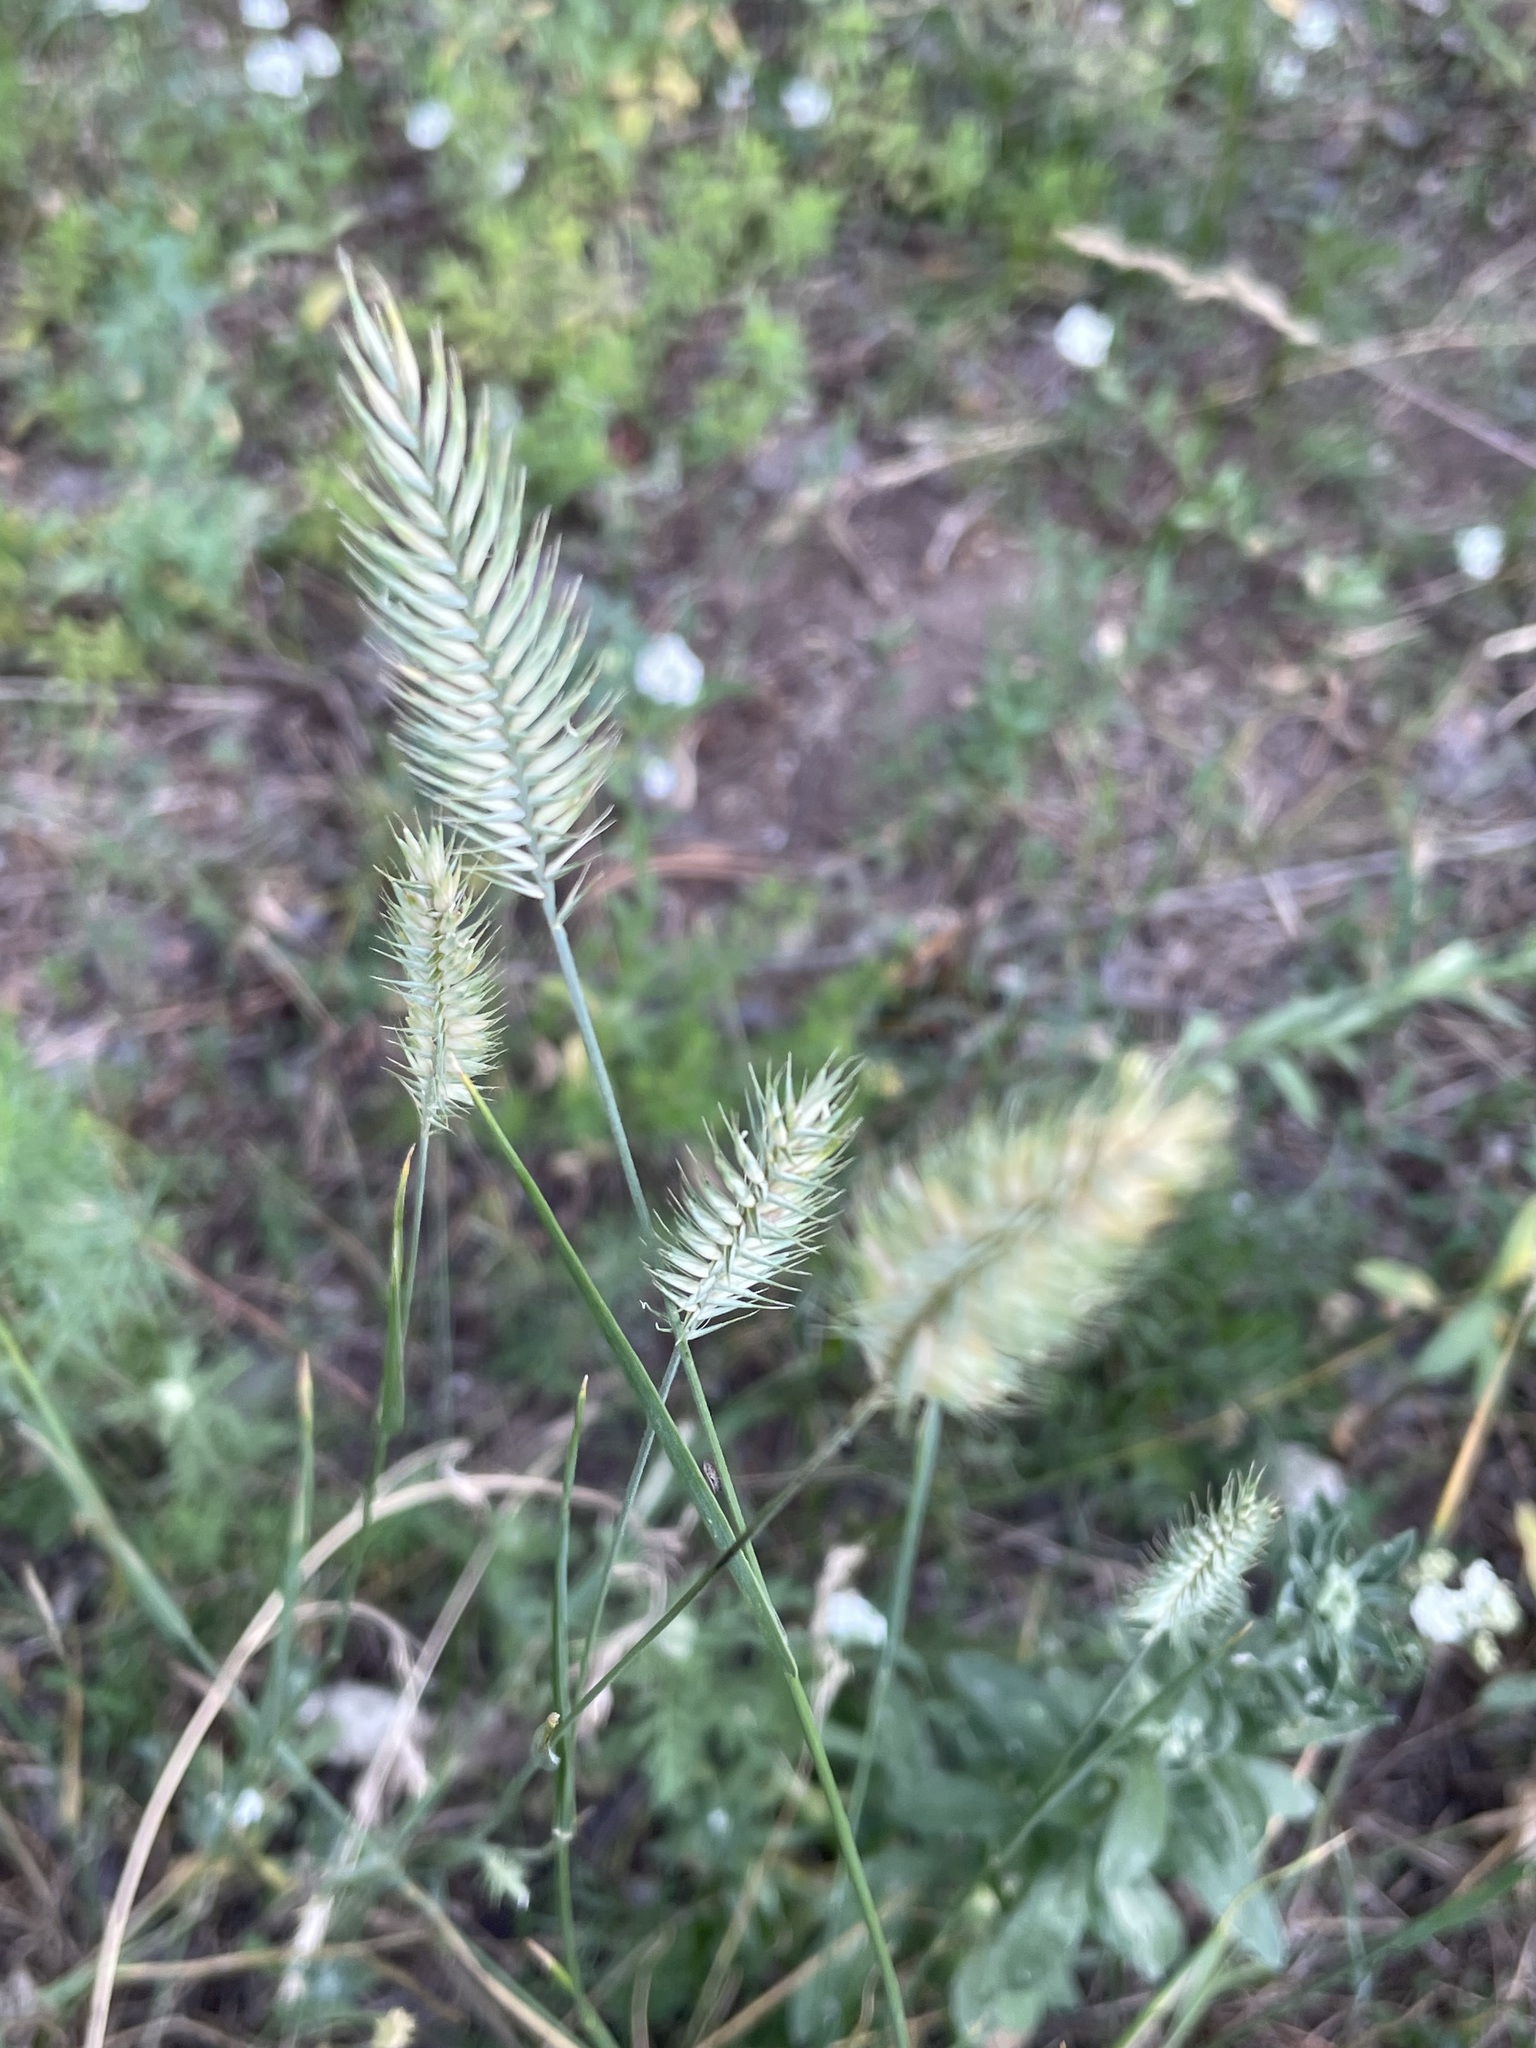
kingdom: Plantae
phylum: Tracheophyta
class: Liliopsida
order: Poales
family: Poaceae
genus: Agropyron
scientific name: Agropyron cristatum
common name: Crested wheatgrass
